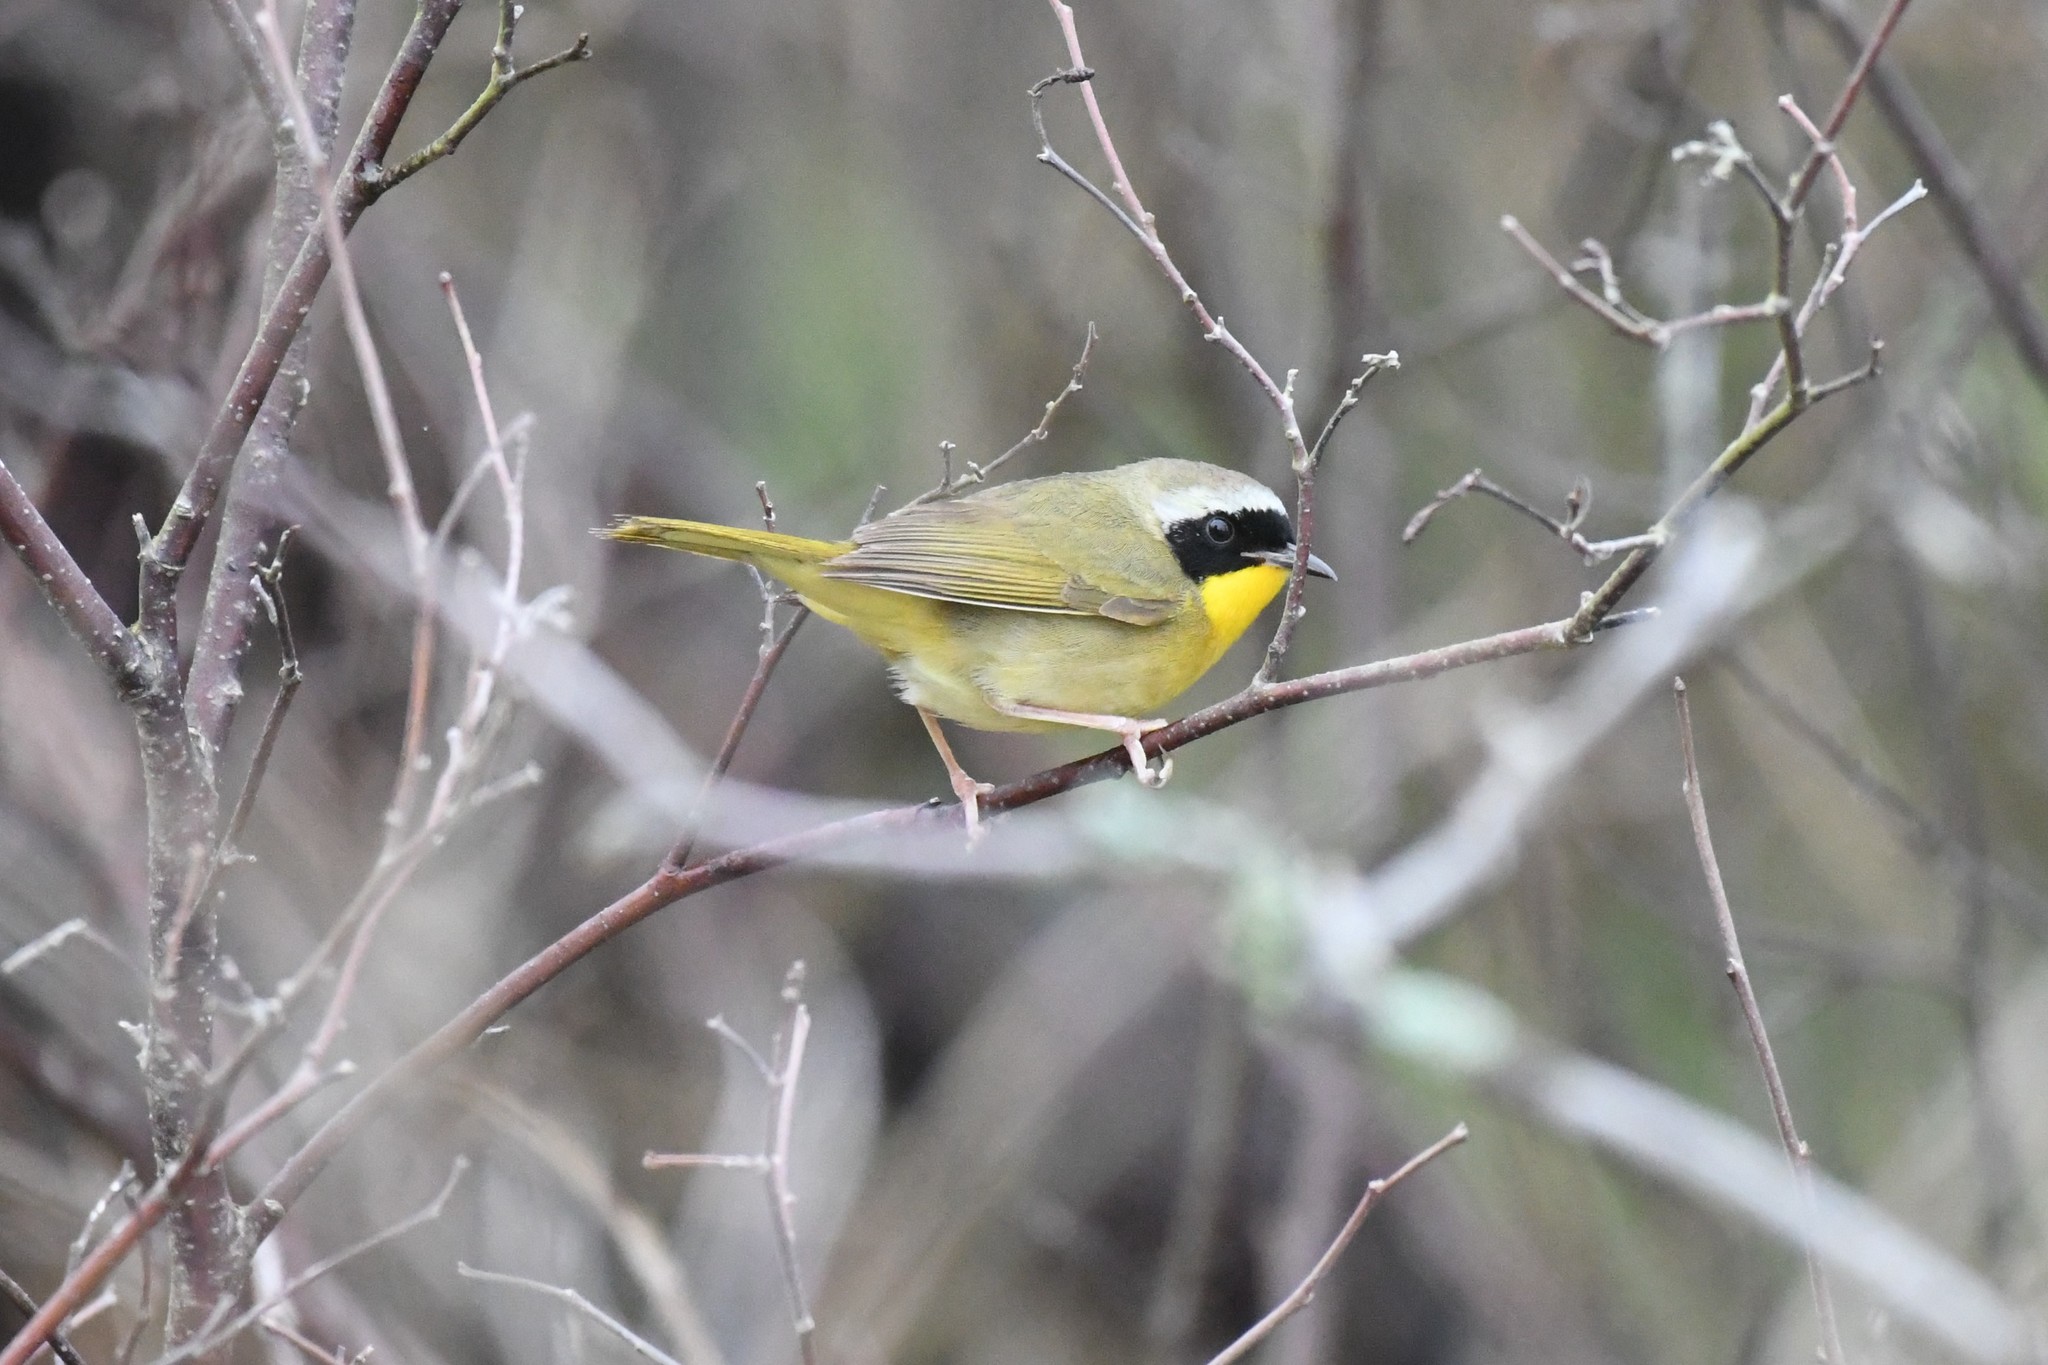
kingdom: Animalia
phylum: Chordata
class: Aves
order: Passeriformes
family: Parulidae
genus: Geothlypis
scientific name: Geothlypis trichas
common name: Common yellowthroat
